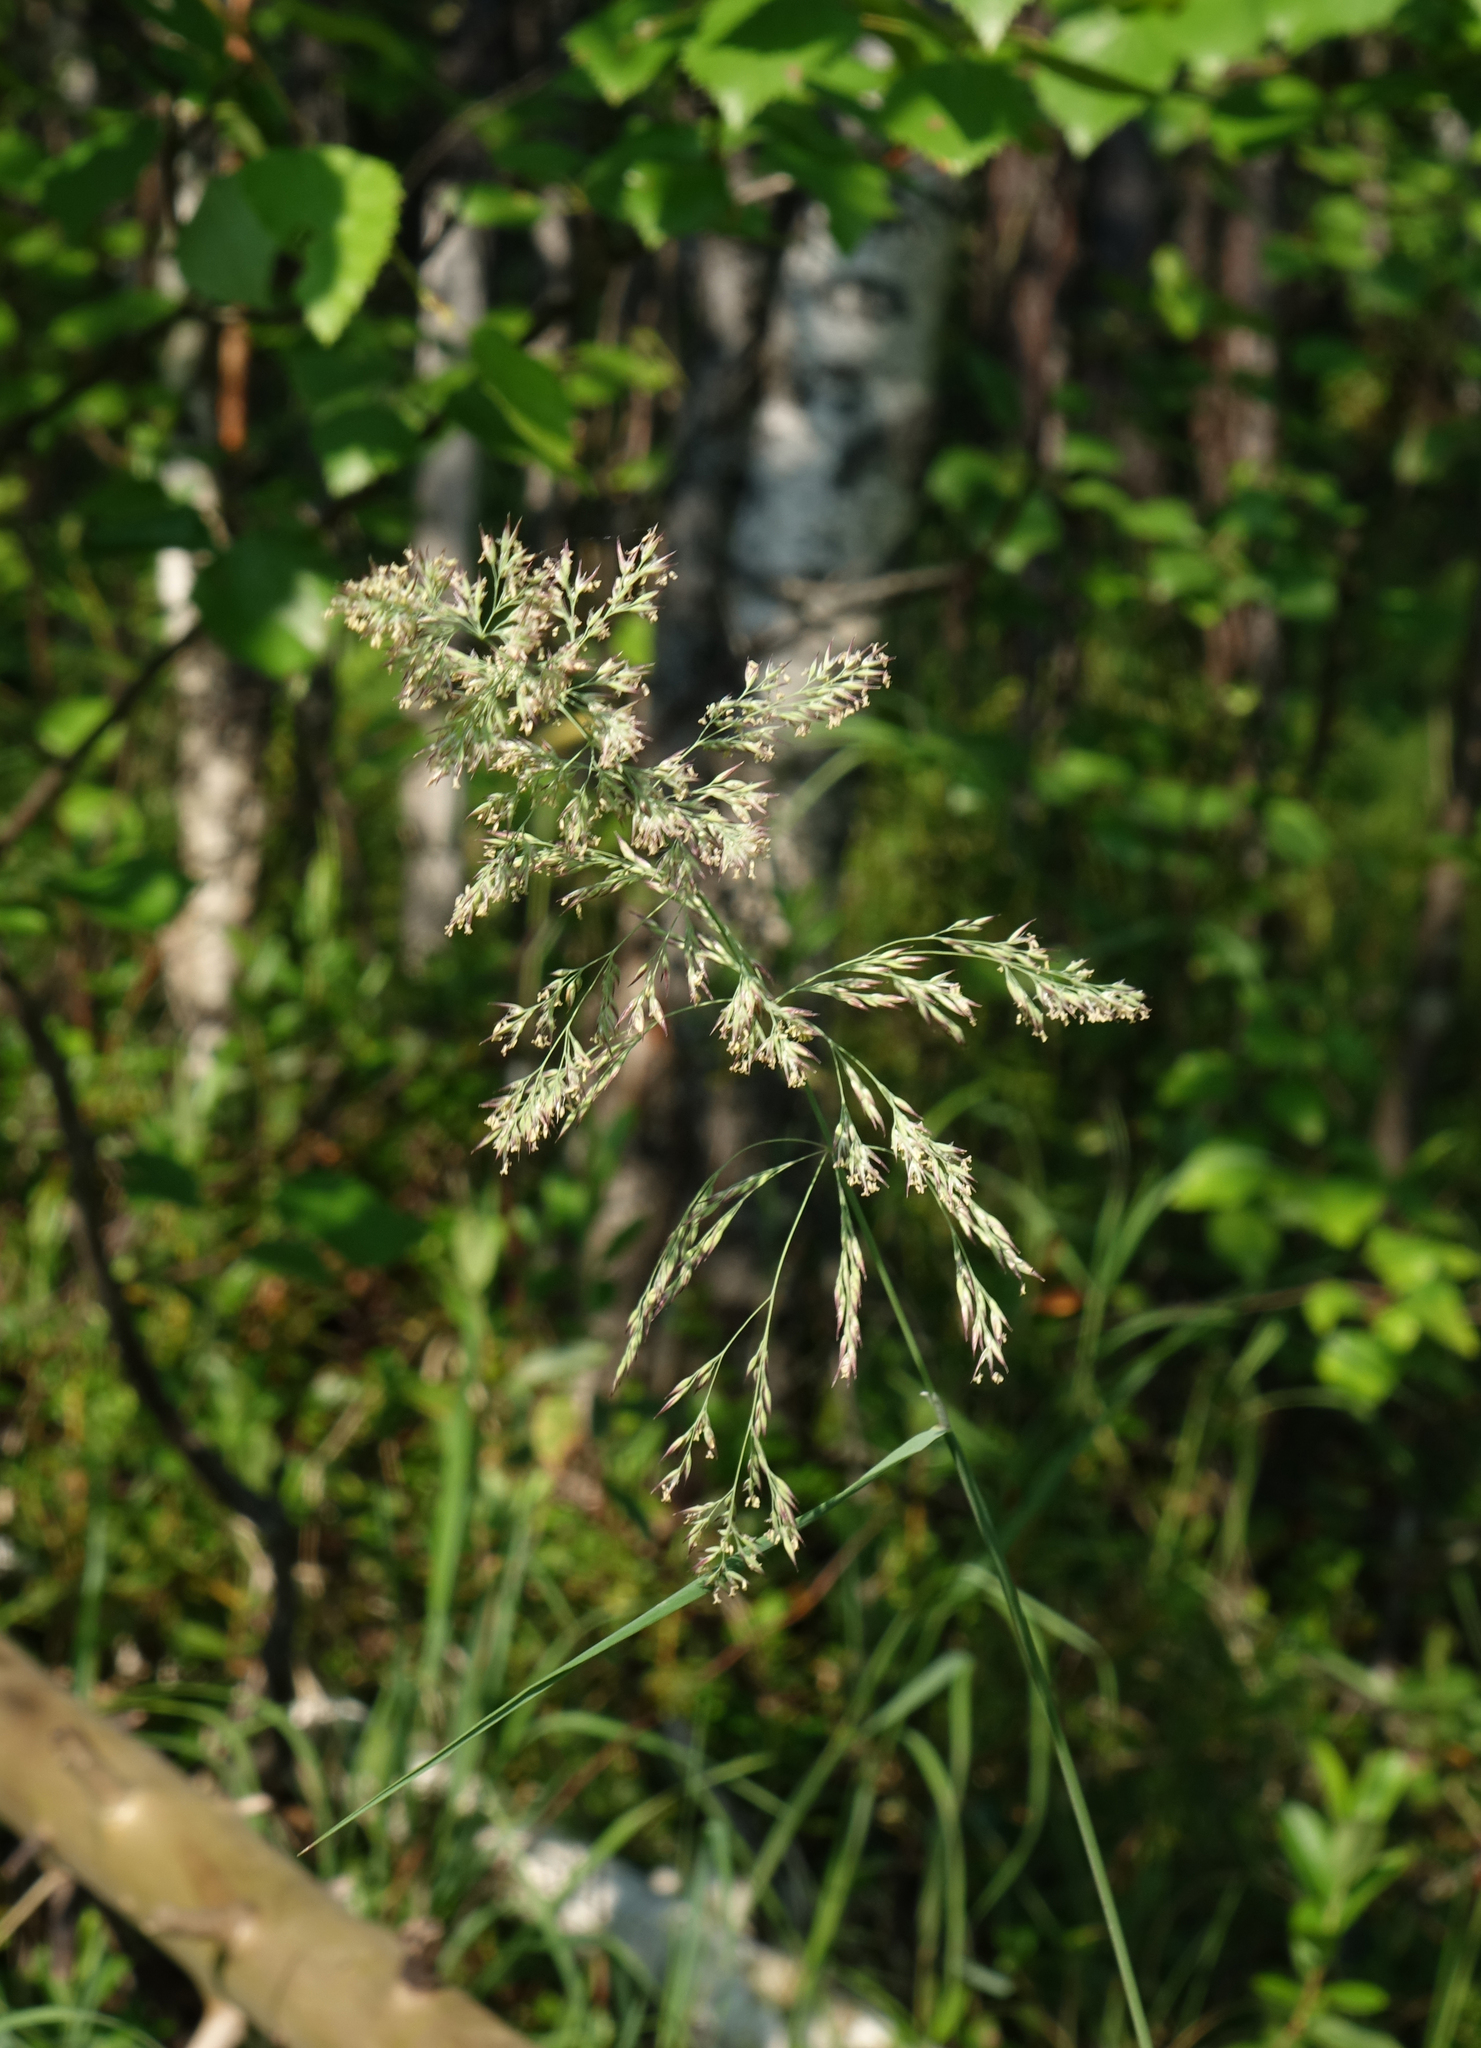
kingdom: Plantae
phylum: Tracheophyta
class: Liliopsida
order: Poales
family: Poaceae
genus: Calamagrostis
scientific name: Calamagrostis purpurea
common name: Scandinavian small-reed
